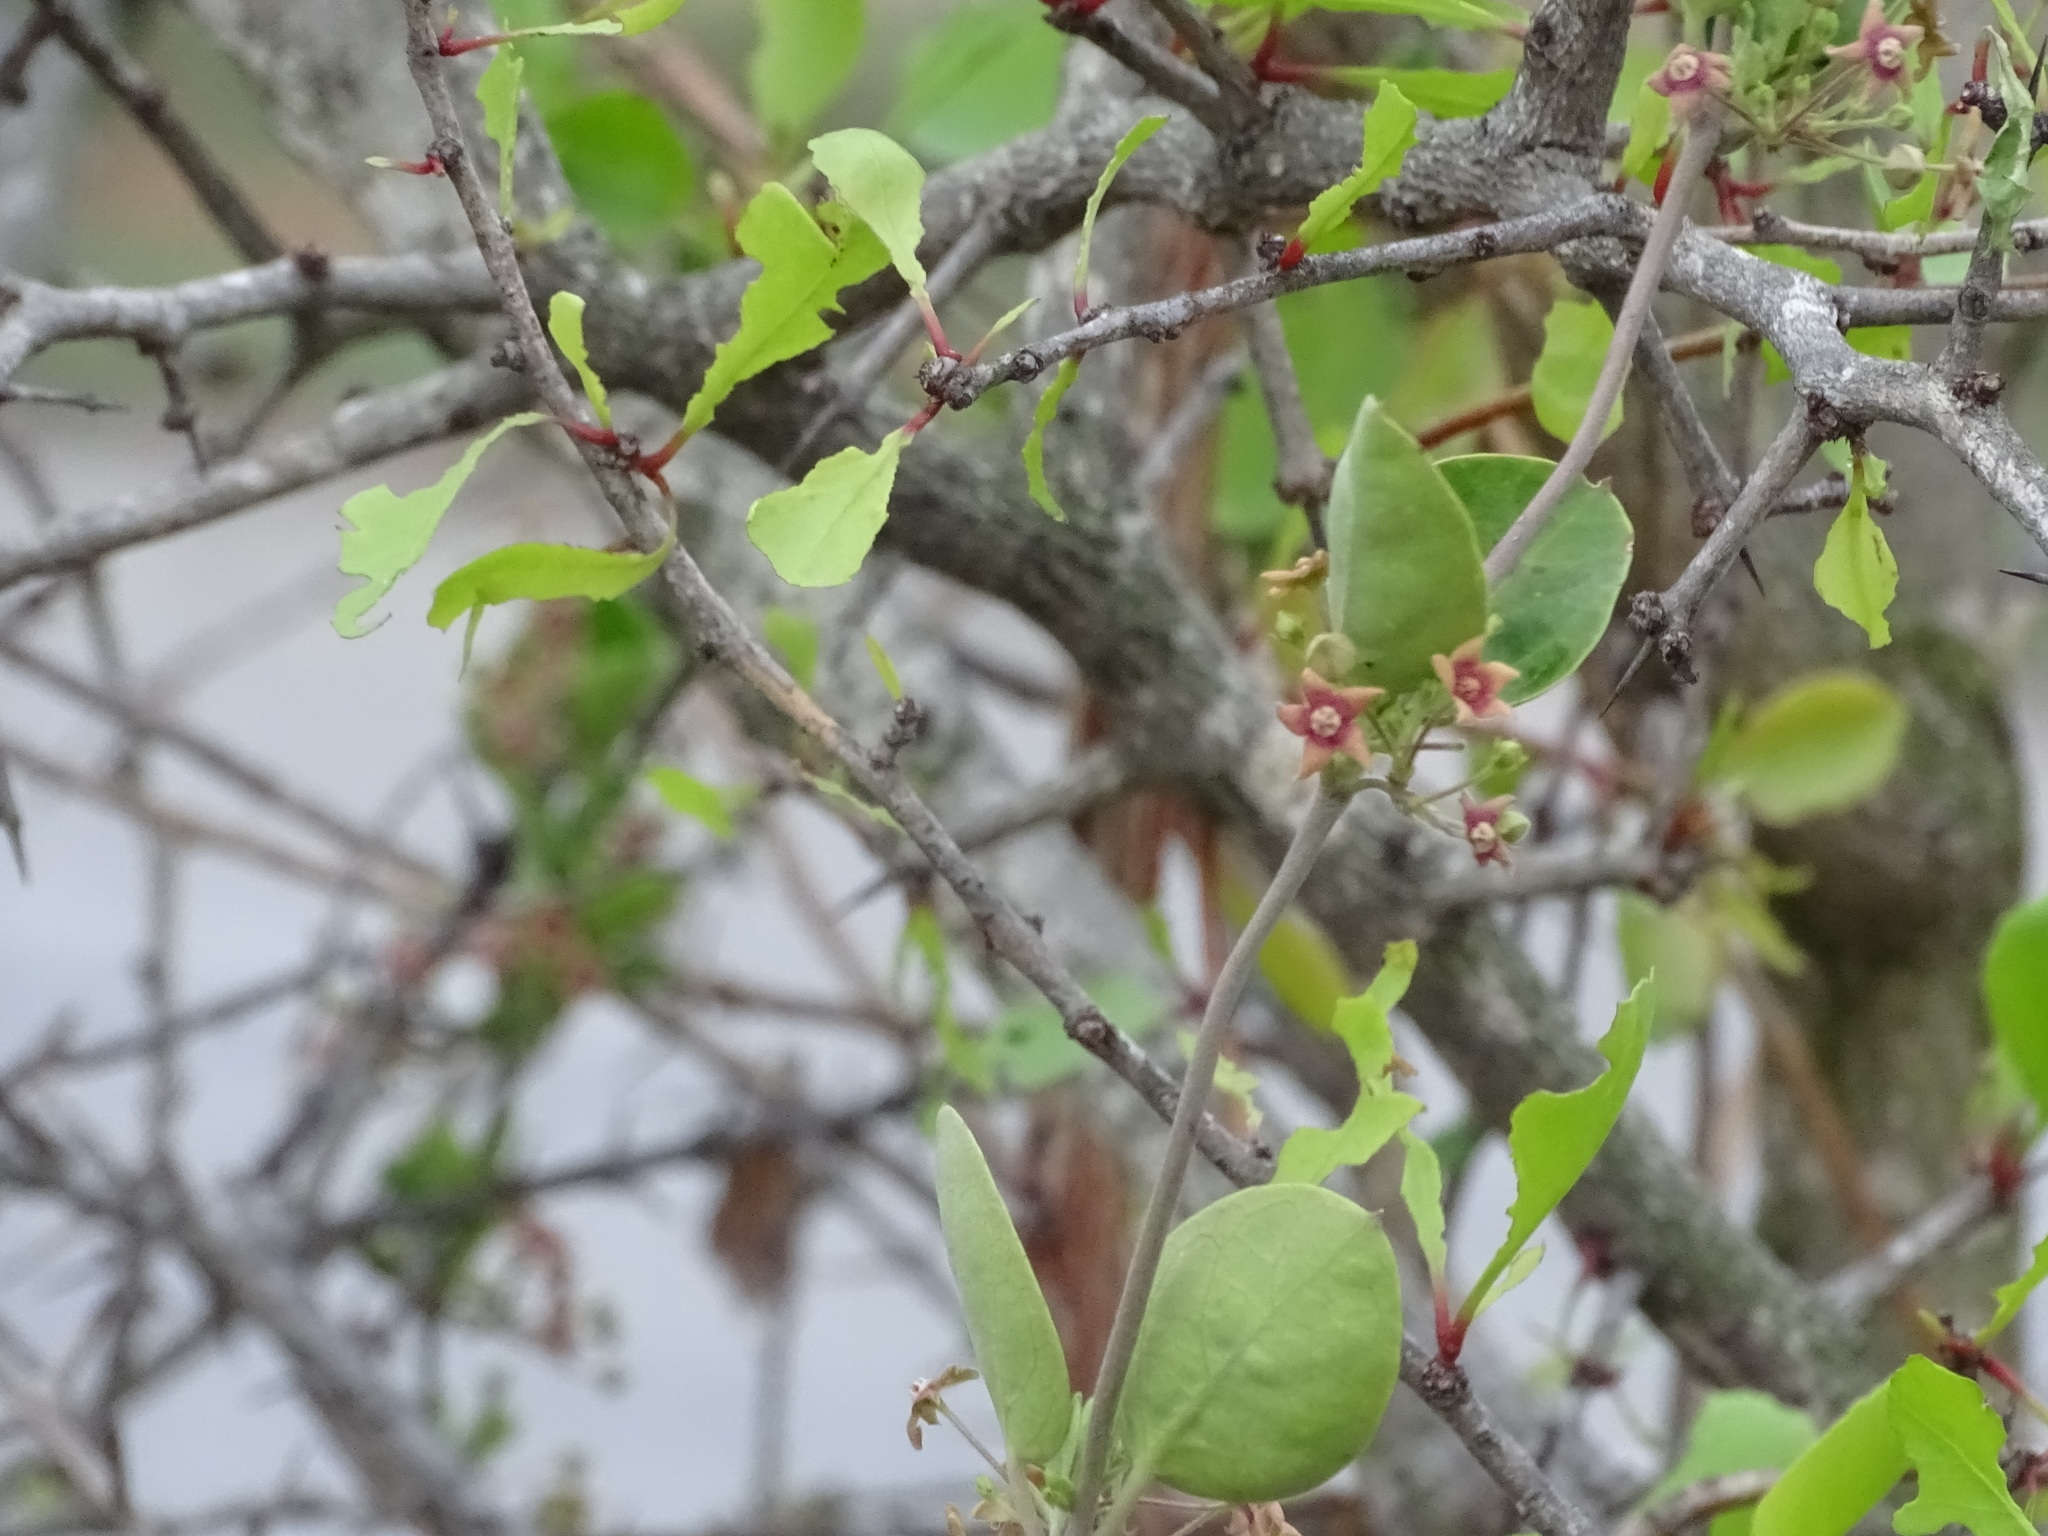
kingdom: Plantae
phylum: Tracheophyta
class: Magnoliopsida
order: Gentianales
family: Apocynaceae
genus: Vincetoxicum
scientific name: Vincetoxicum indicum
